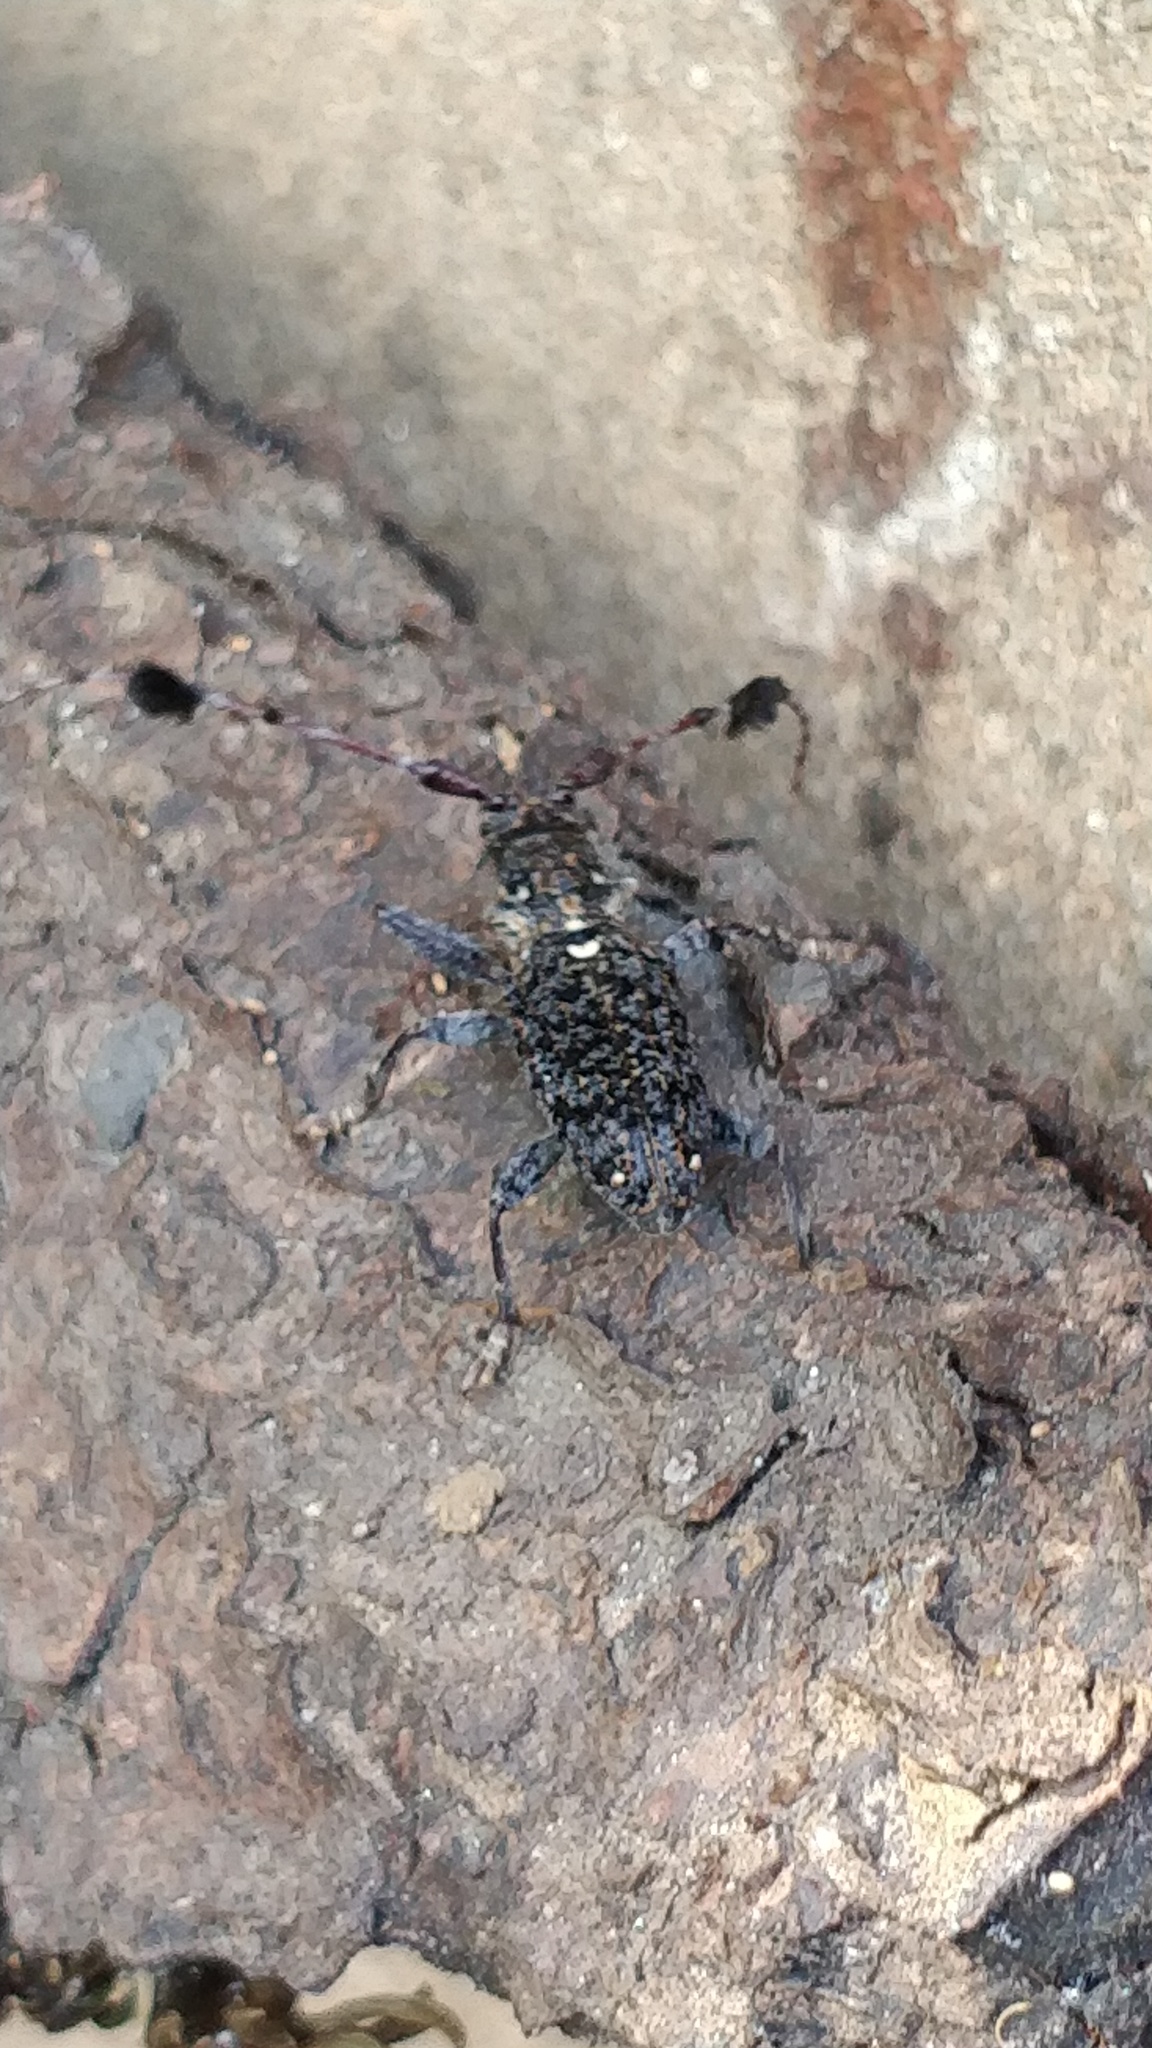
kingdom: Animalia
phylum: Arthropoda
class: Insecta
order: Coleoptera
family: Cerambycidae
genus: Imantocera
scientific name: Imantocera penicillata
